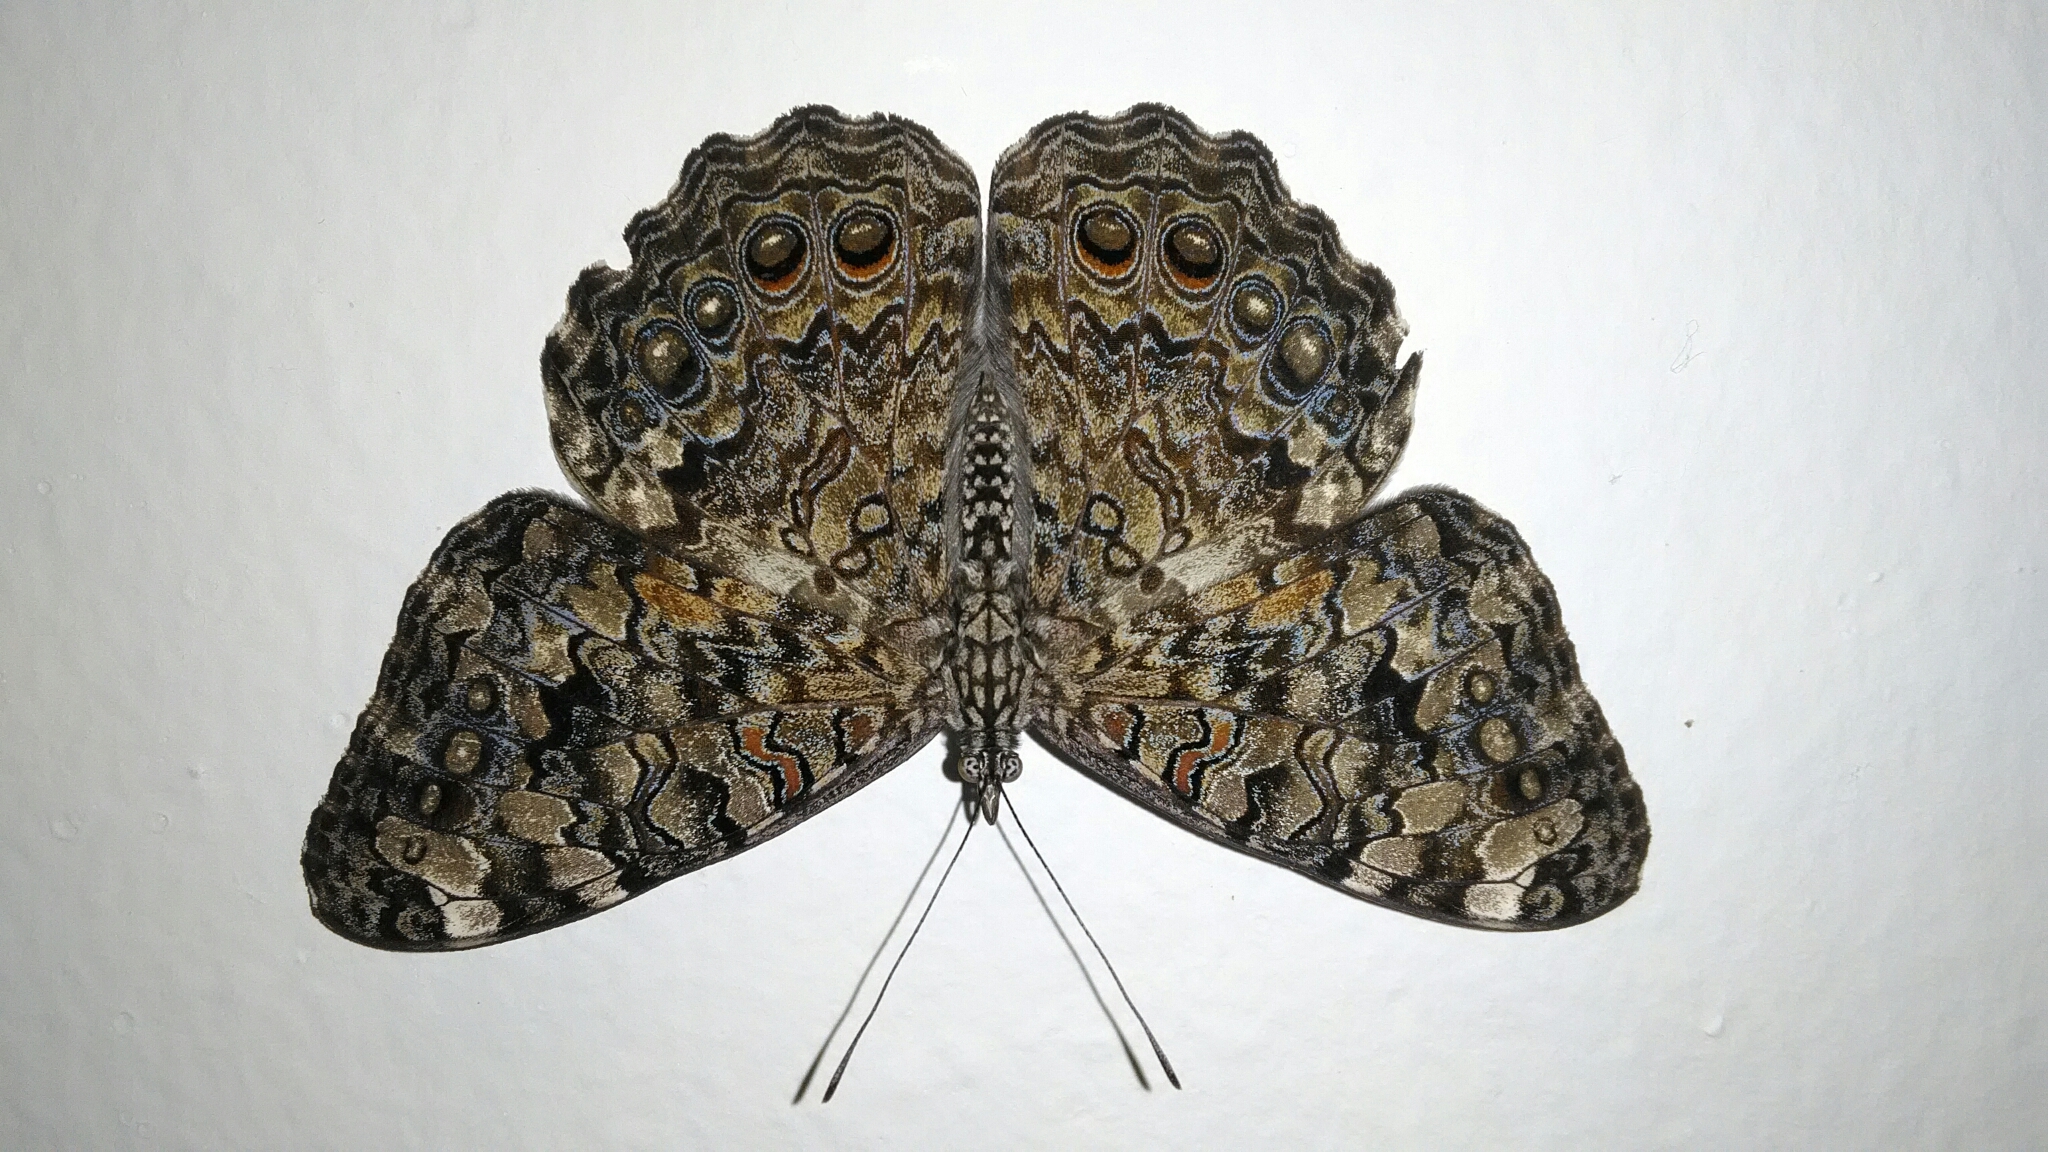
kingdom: Animalia
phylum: Arthropoda
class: Insecta
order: Lepidoptera
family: Nymphalidae
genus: Hamadryas
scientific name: Hamadryas februa
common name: Gray cracker
